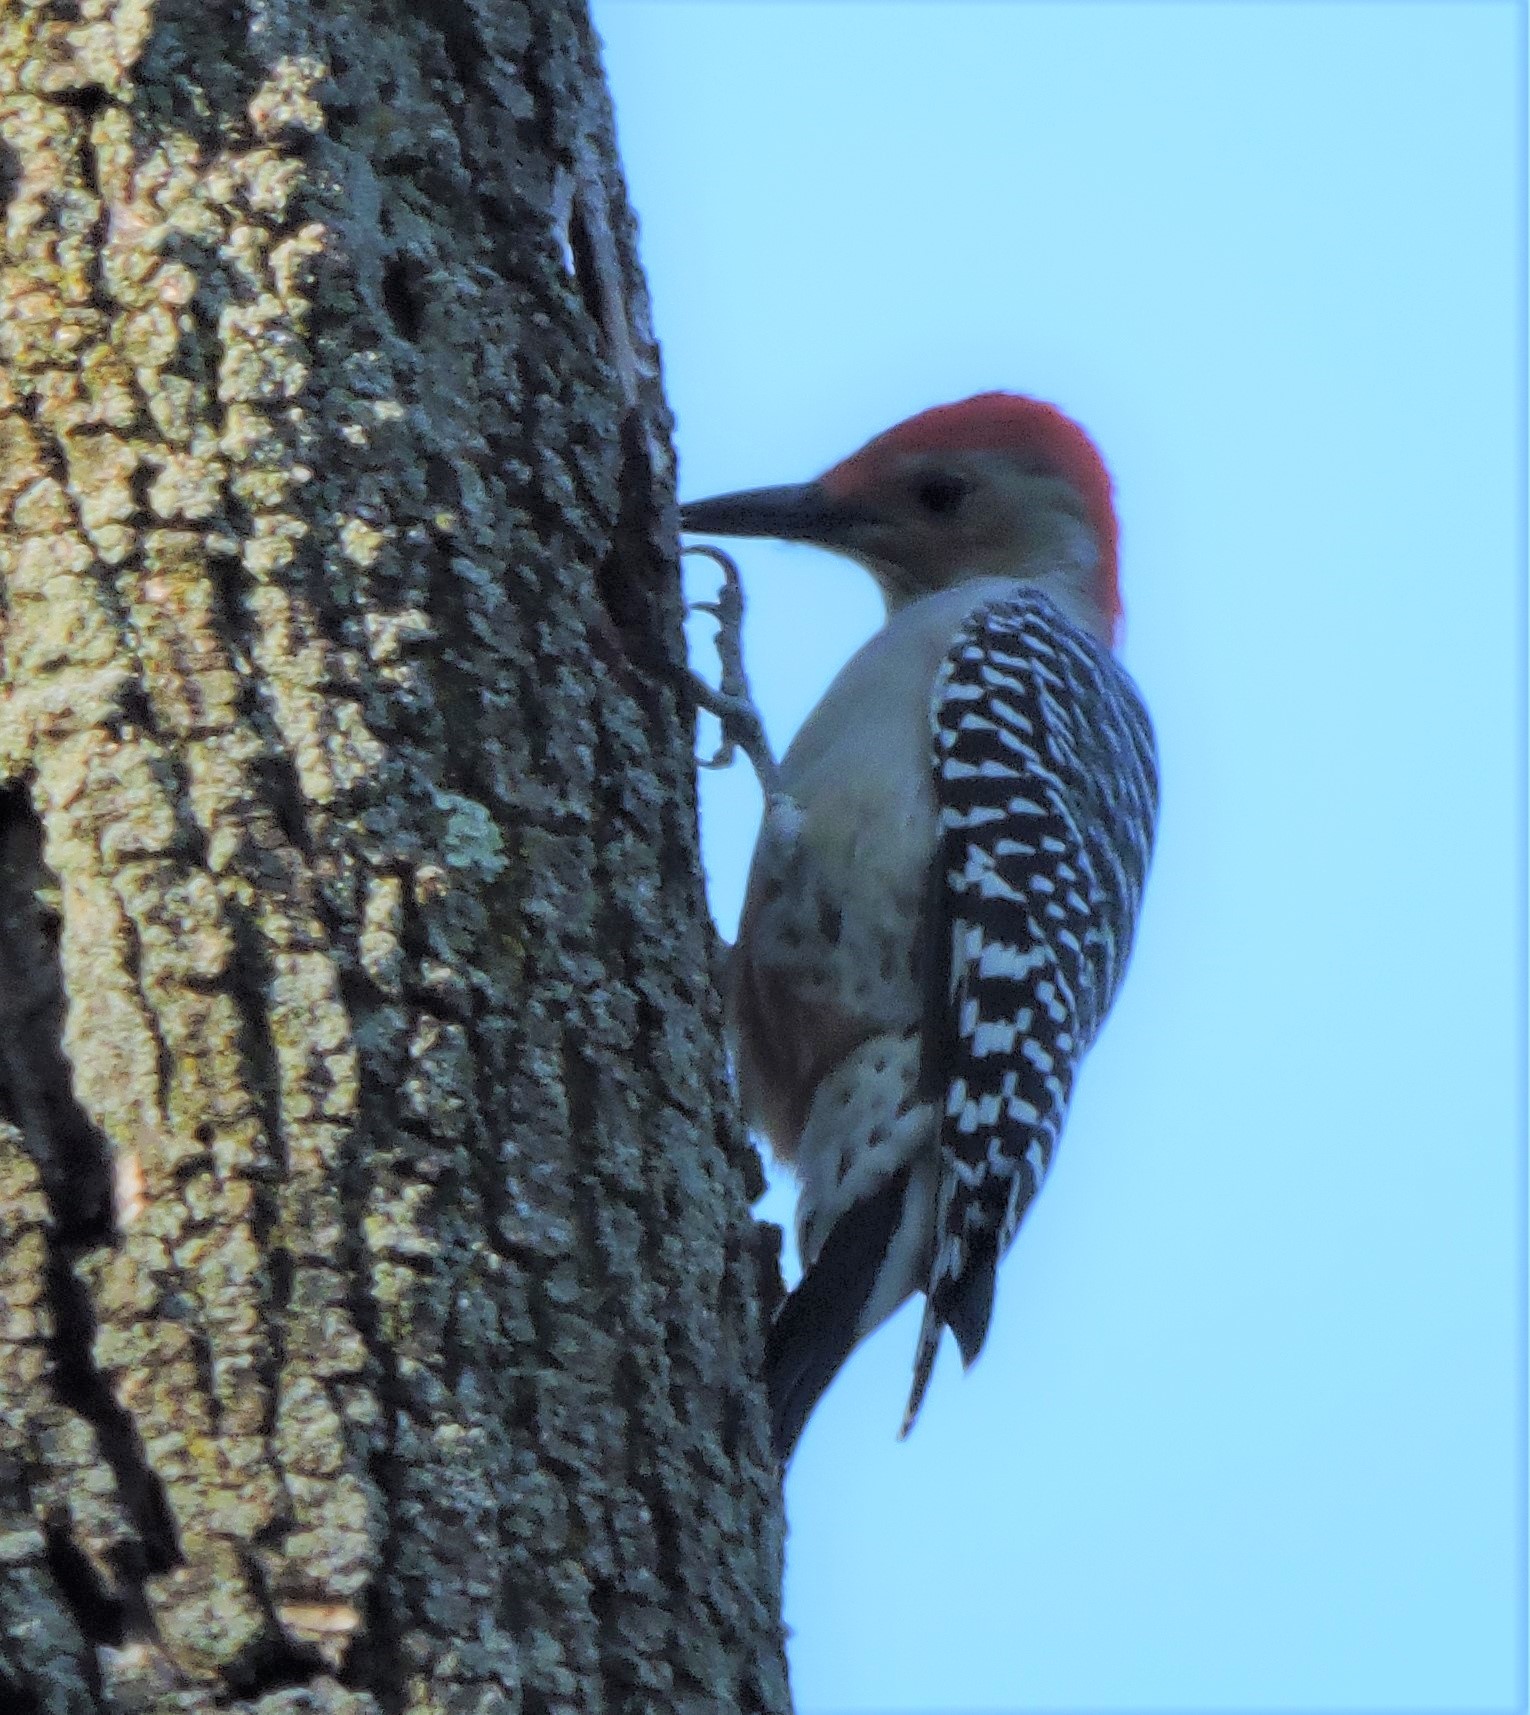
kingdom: Animalia
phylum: Chordata
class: Aves
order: Piciformes
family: Picidae
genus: Melanerpes
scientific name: Melanerpes carolinus
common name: Red-bellied woodpecker
